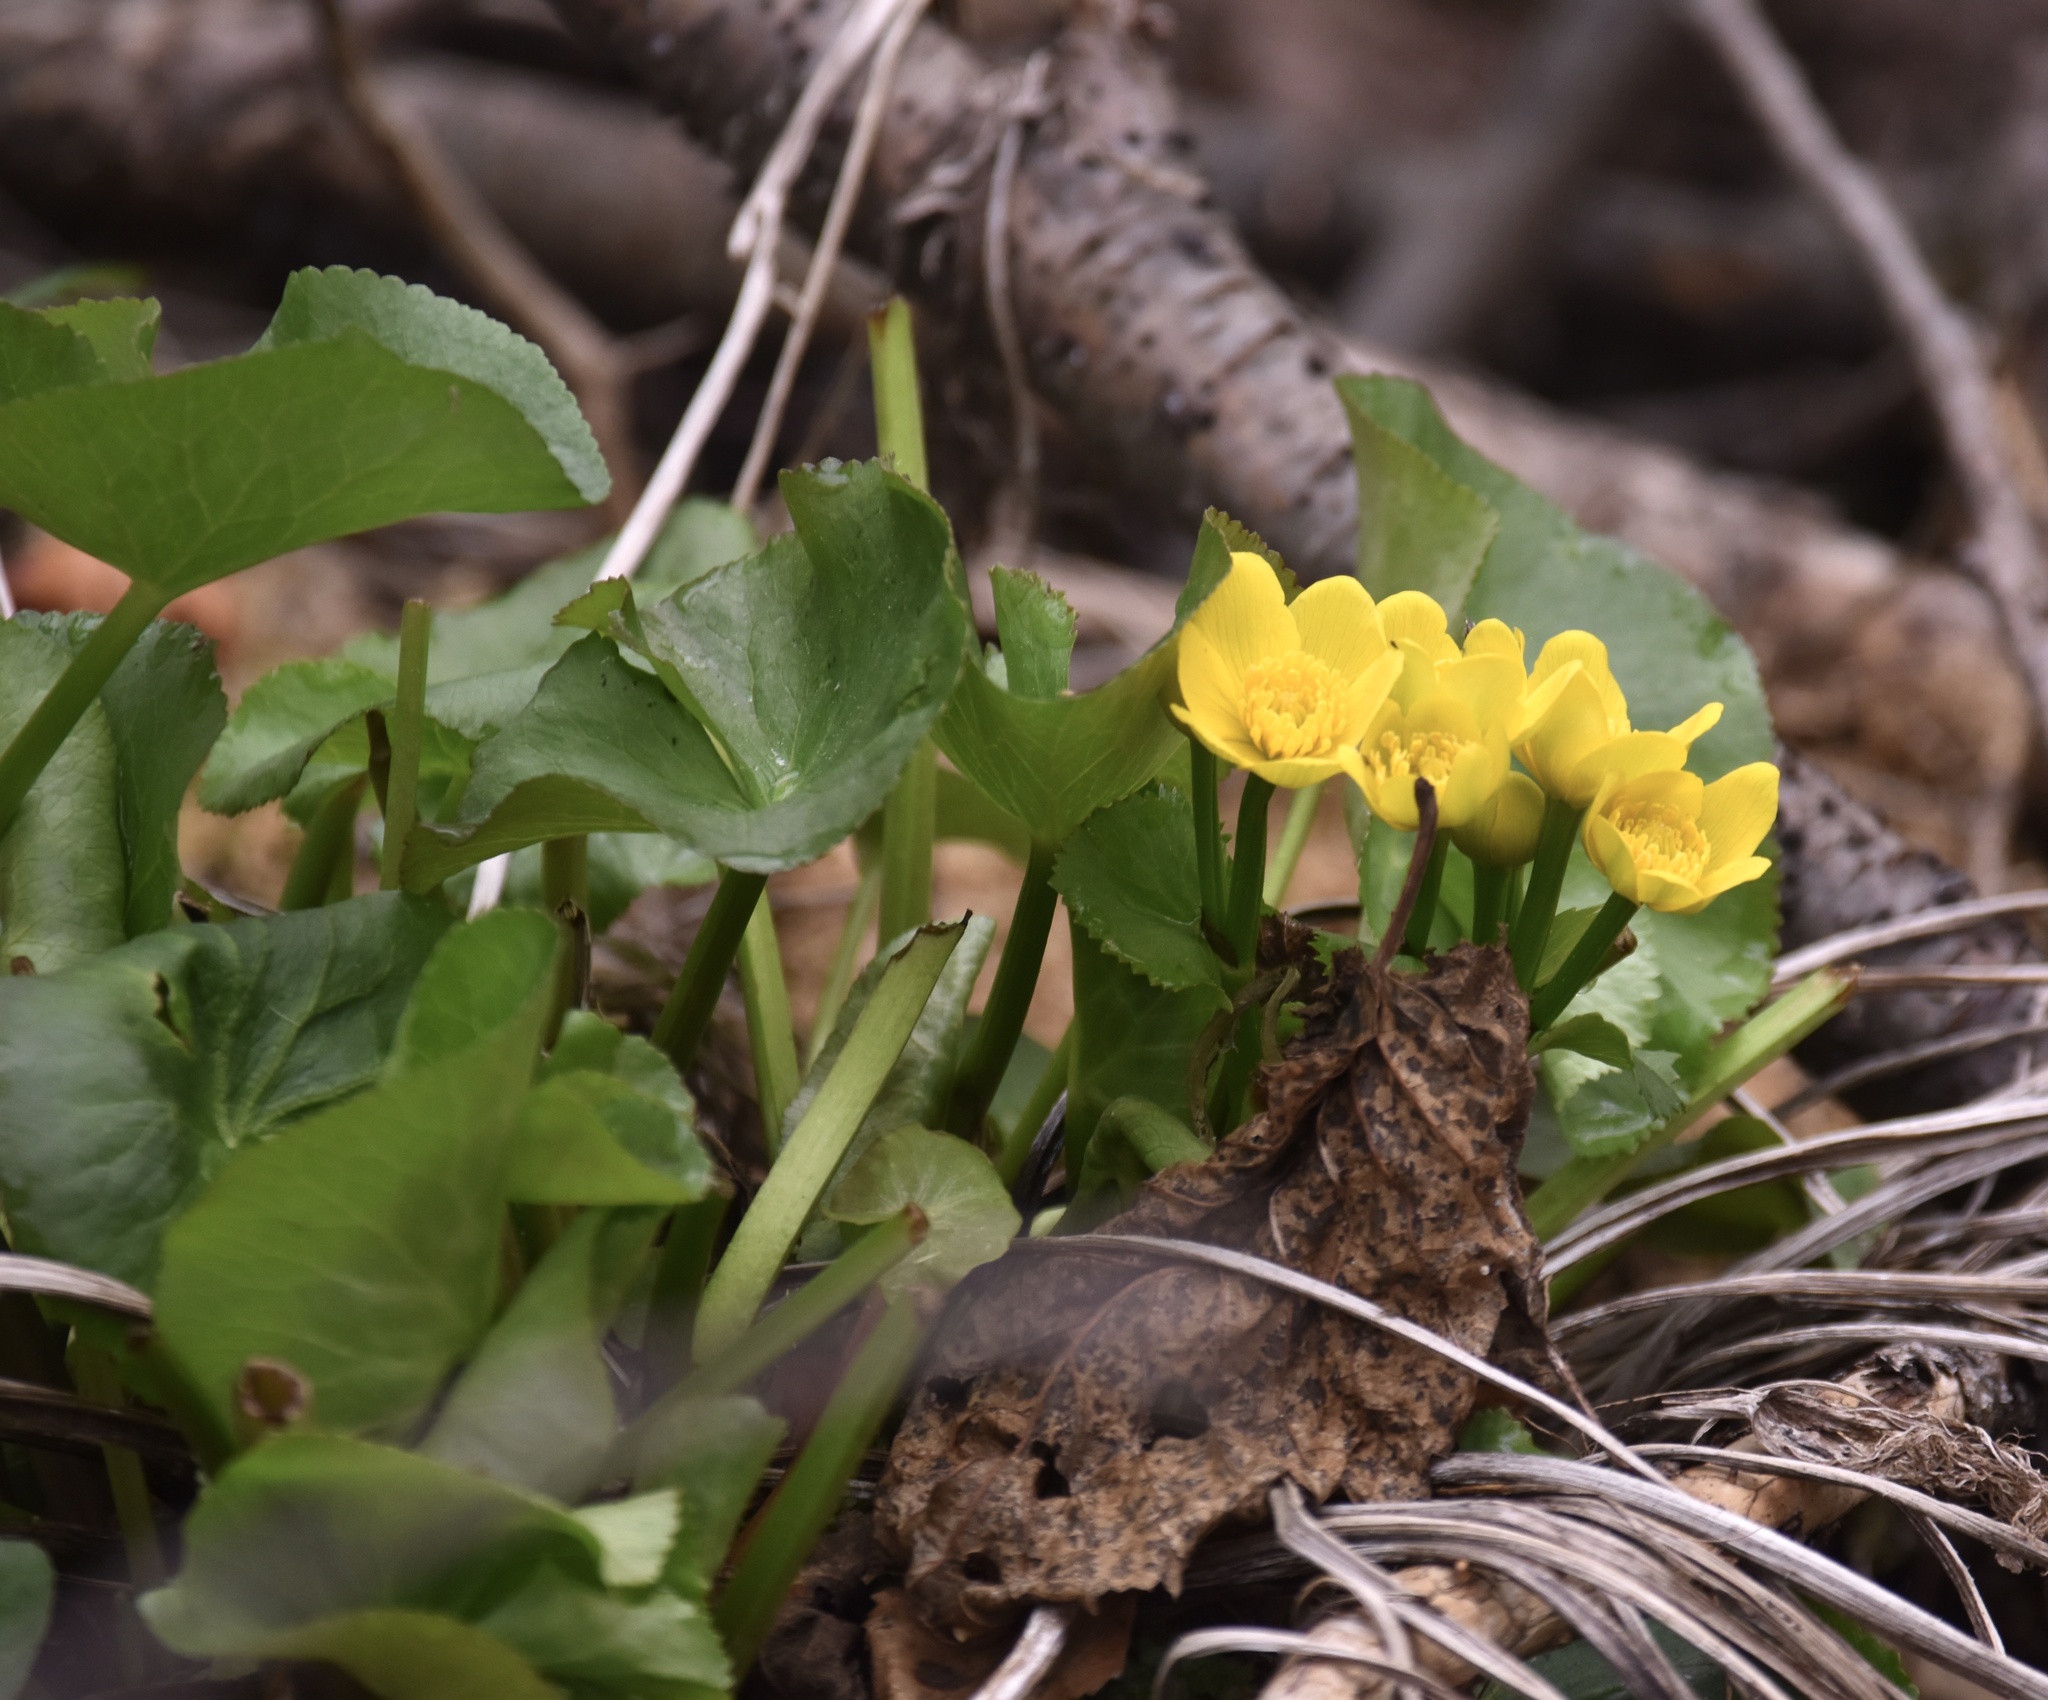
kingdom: Plantae
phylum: Tracheophyta
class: Magnoliopsida
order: Ranunculales
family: Ranunculaceae
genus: Caltha
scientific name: Caltha palustris
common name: Marsh marigold
